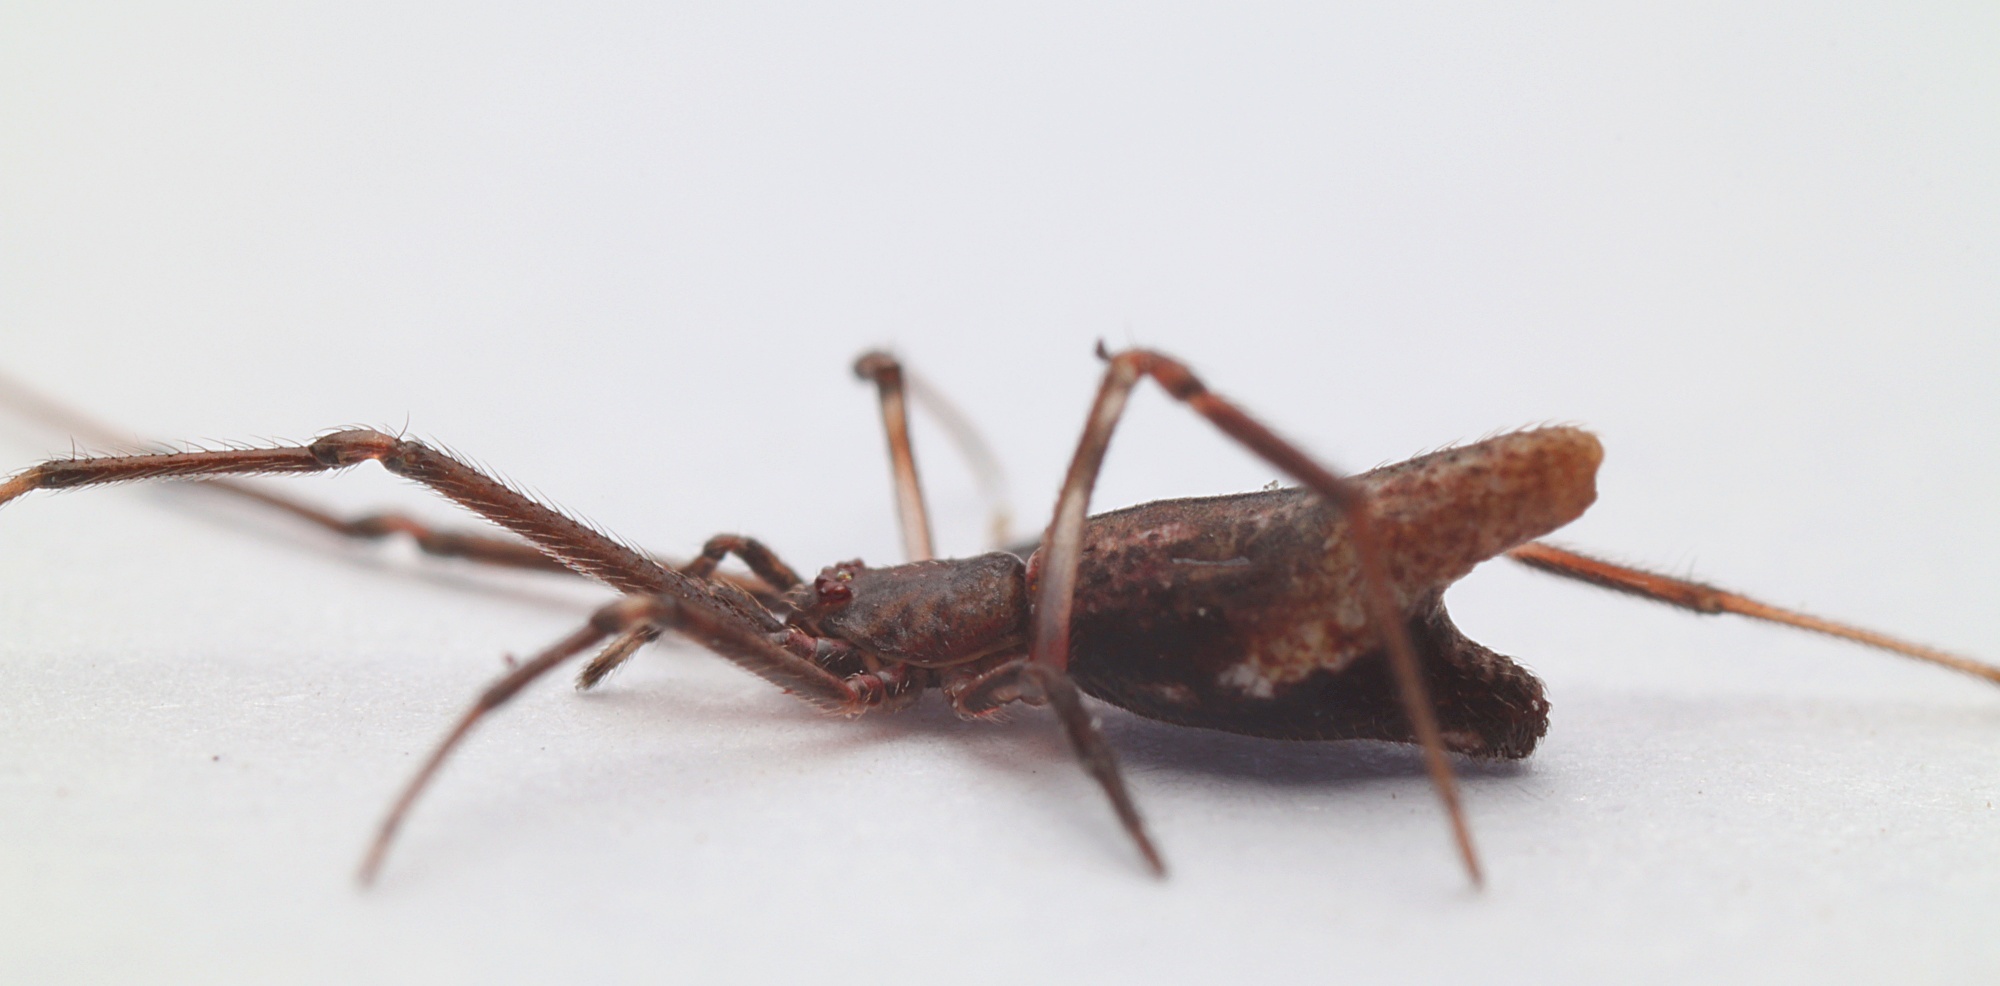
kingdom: Animalia
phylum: Arthropoda
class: Arachnida
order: Araneae
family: Theridiidae
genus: Moneta
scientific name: Moneta conifera
